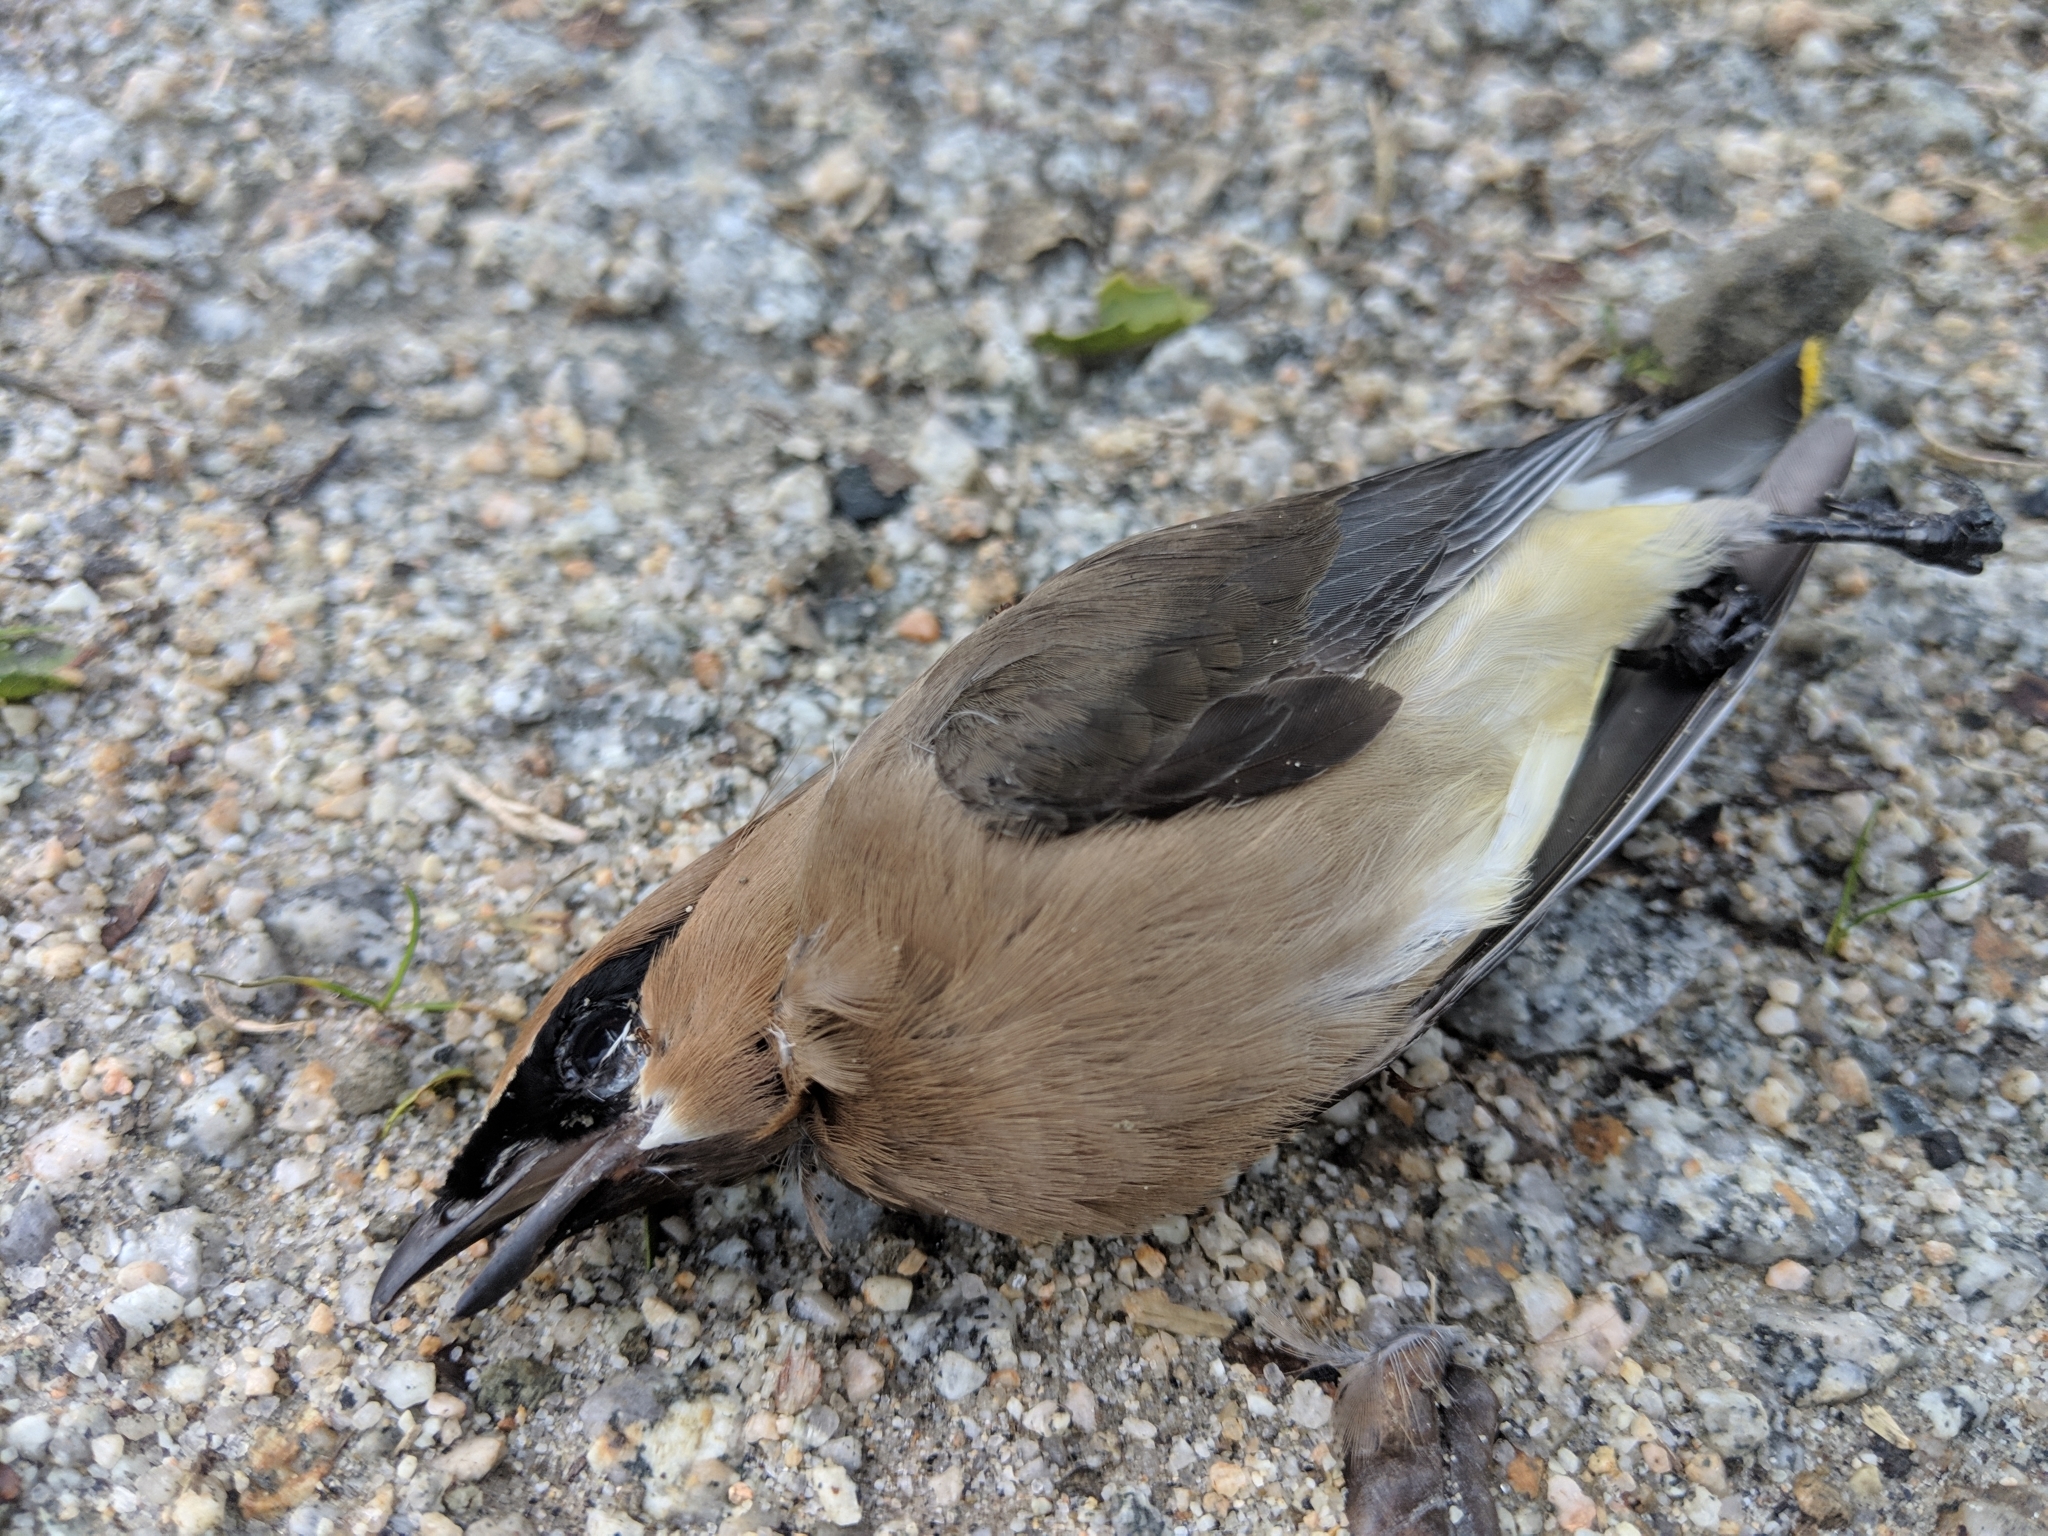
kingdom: Animalia
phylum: Chordata
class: Aves
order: Passeriformes
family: Bombycillidae
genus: Bombycilla
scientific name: Bombycilla cedrorum
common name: Cedar waxwing
